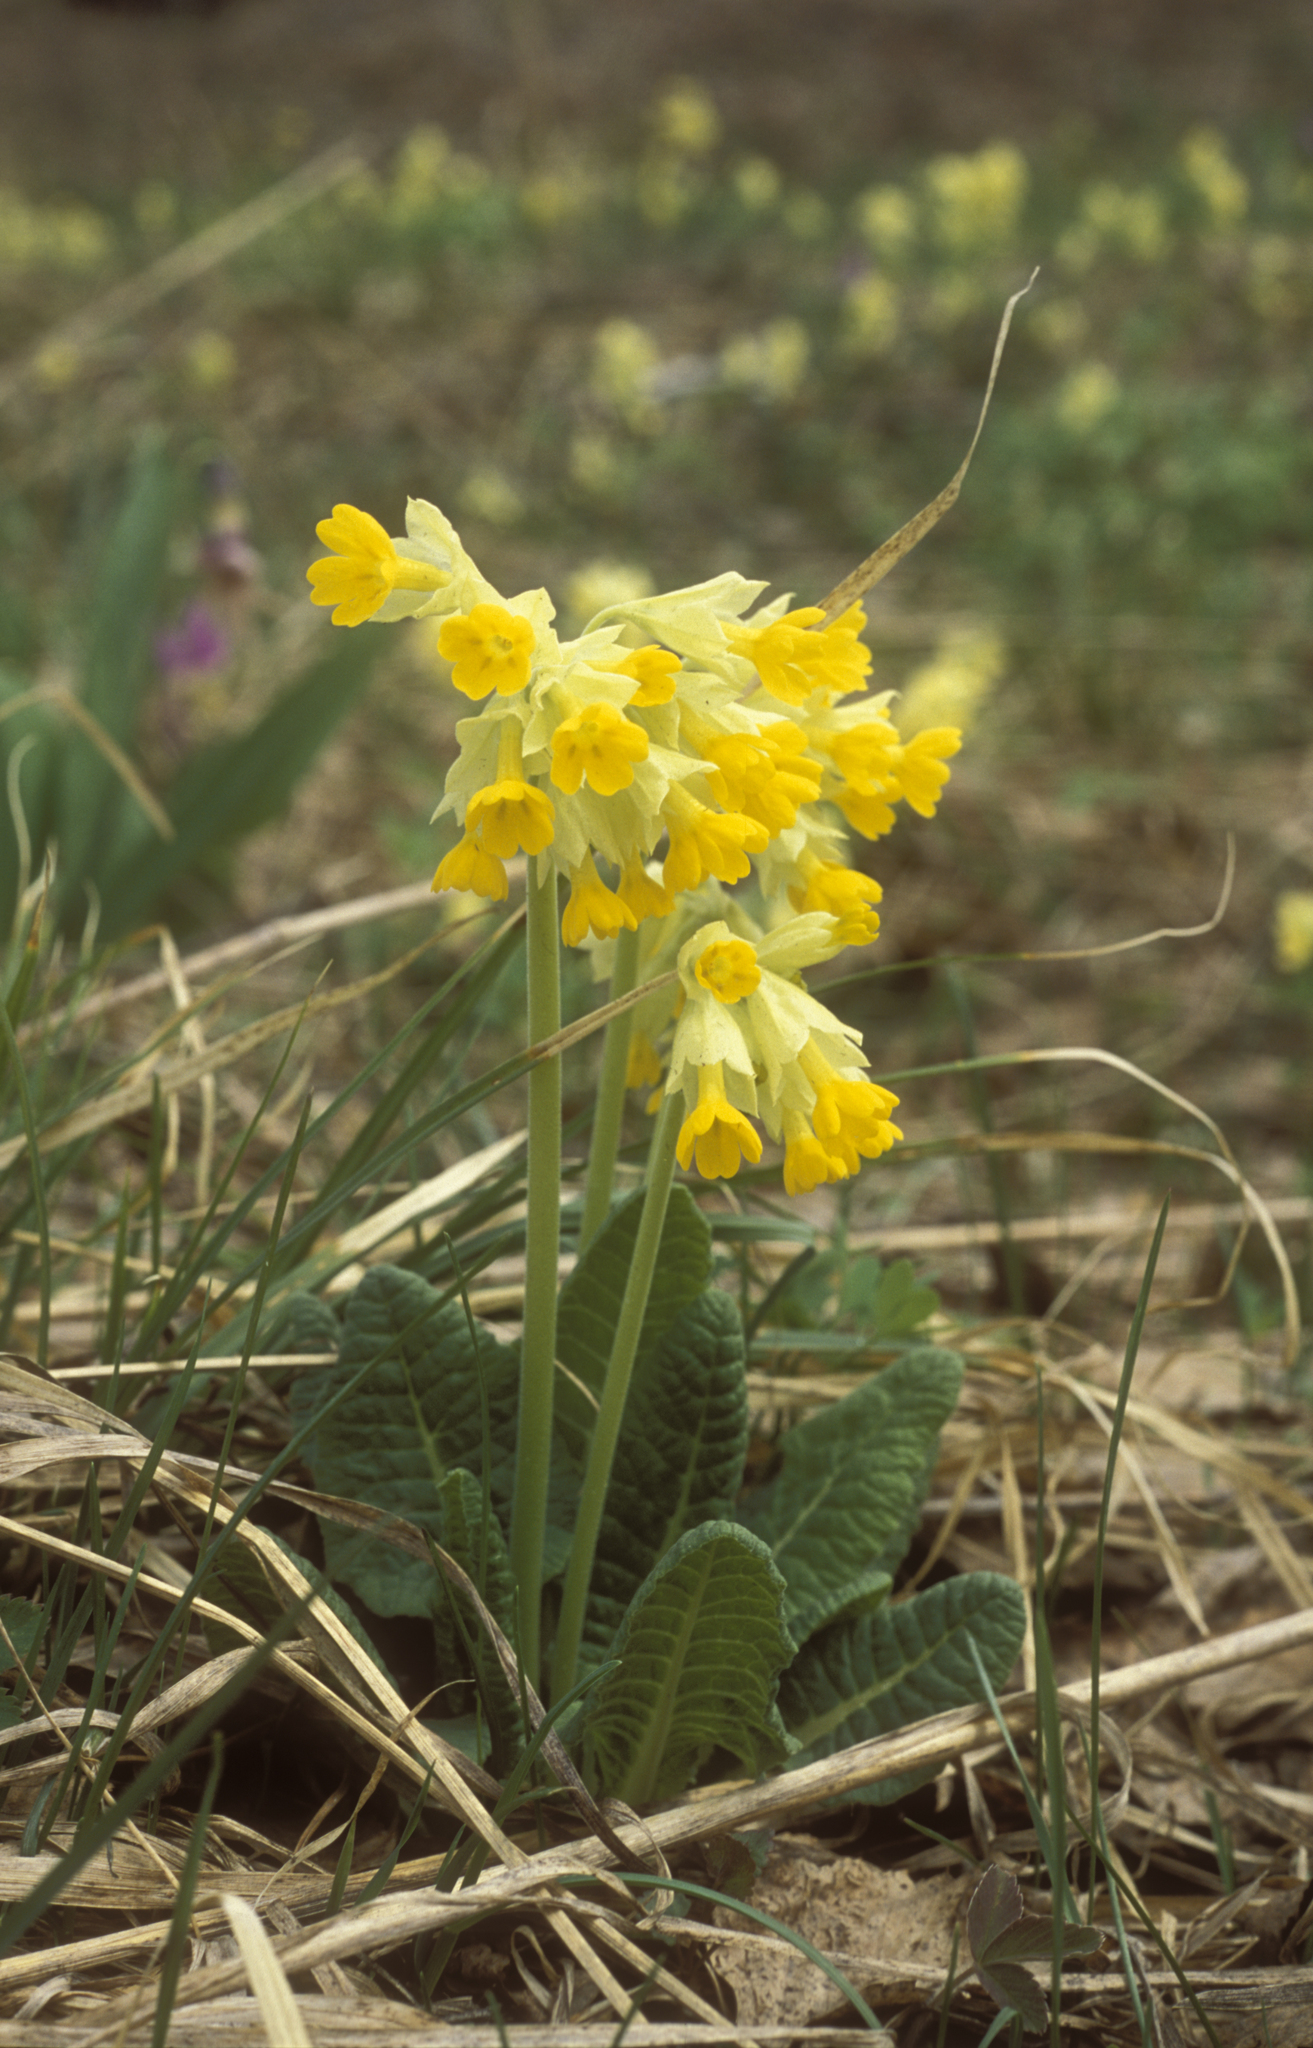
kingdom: Plantae
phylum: Tracheophyta
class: Magnoliopsida
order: Ericales
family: Primulaceae
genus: Primula
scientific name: Primula veris
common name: Cowslip
